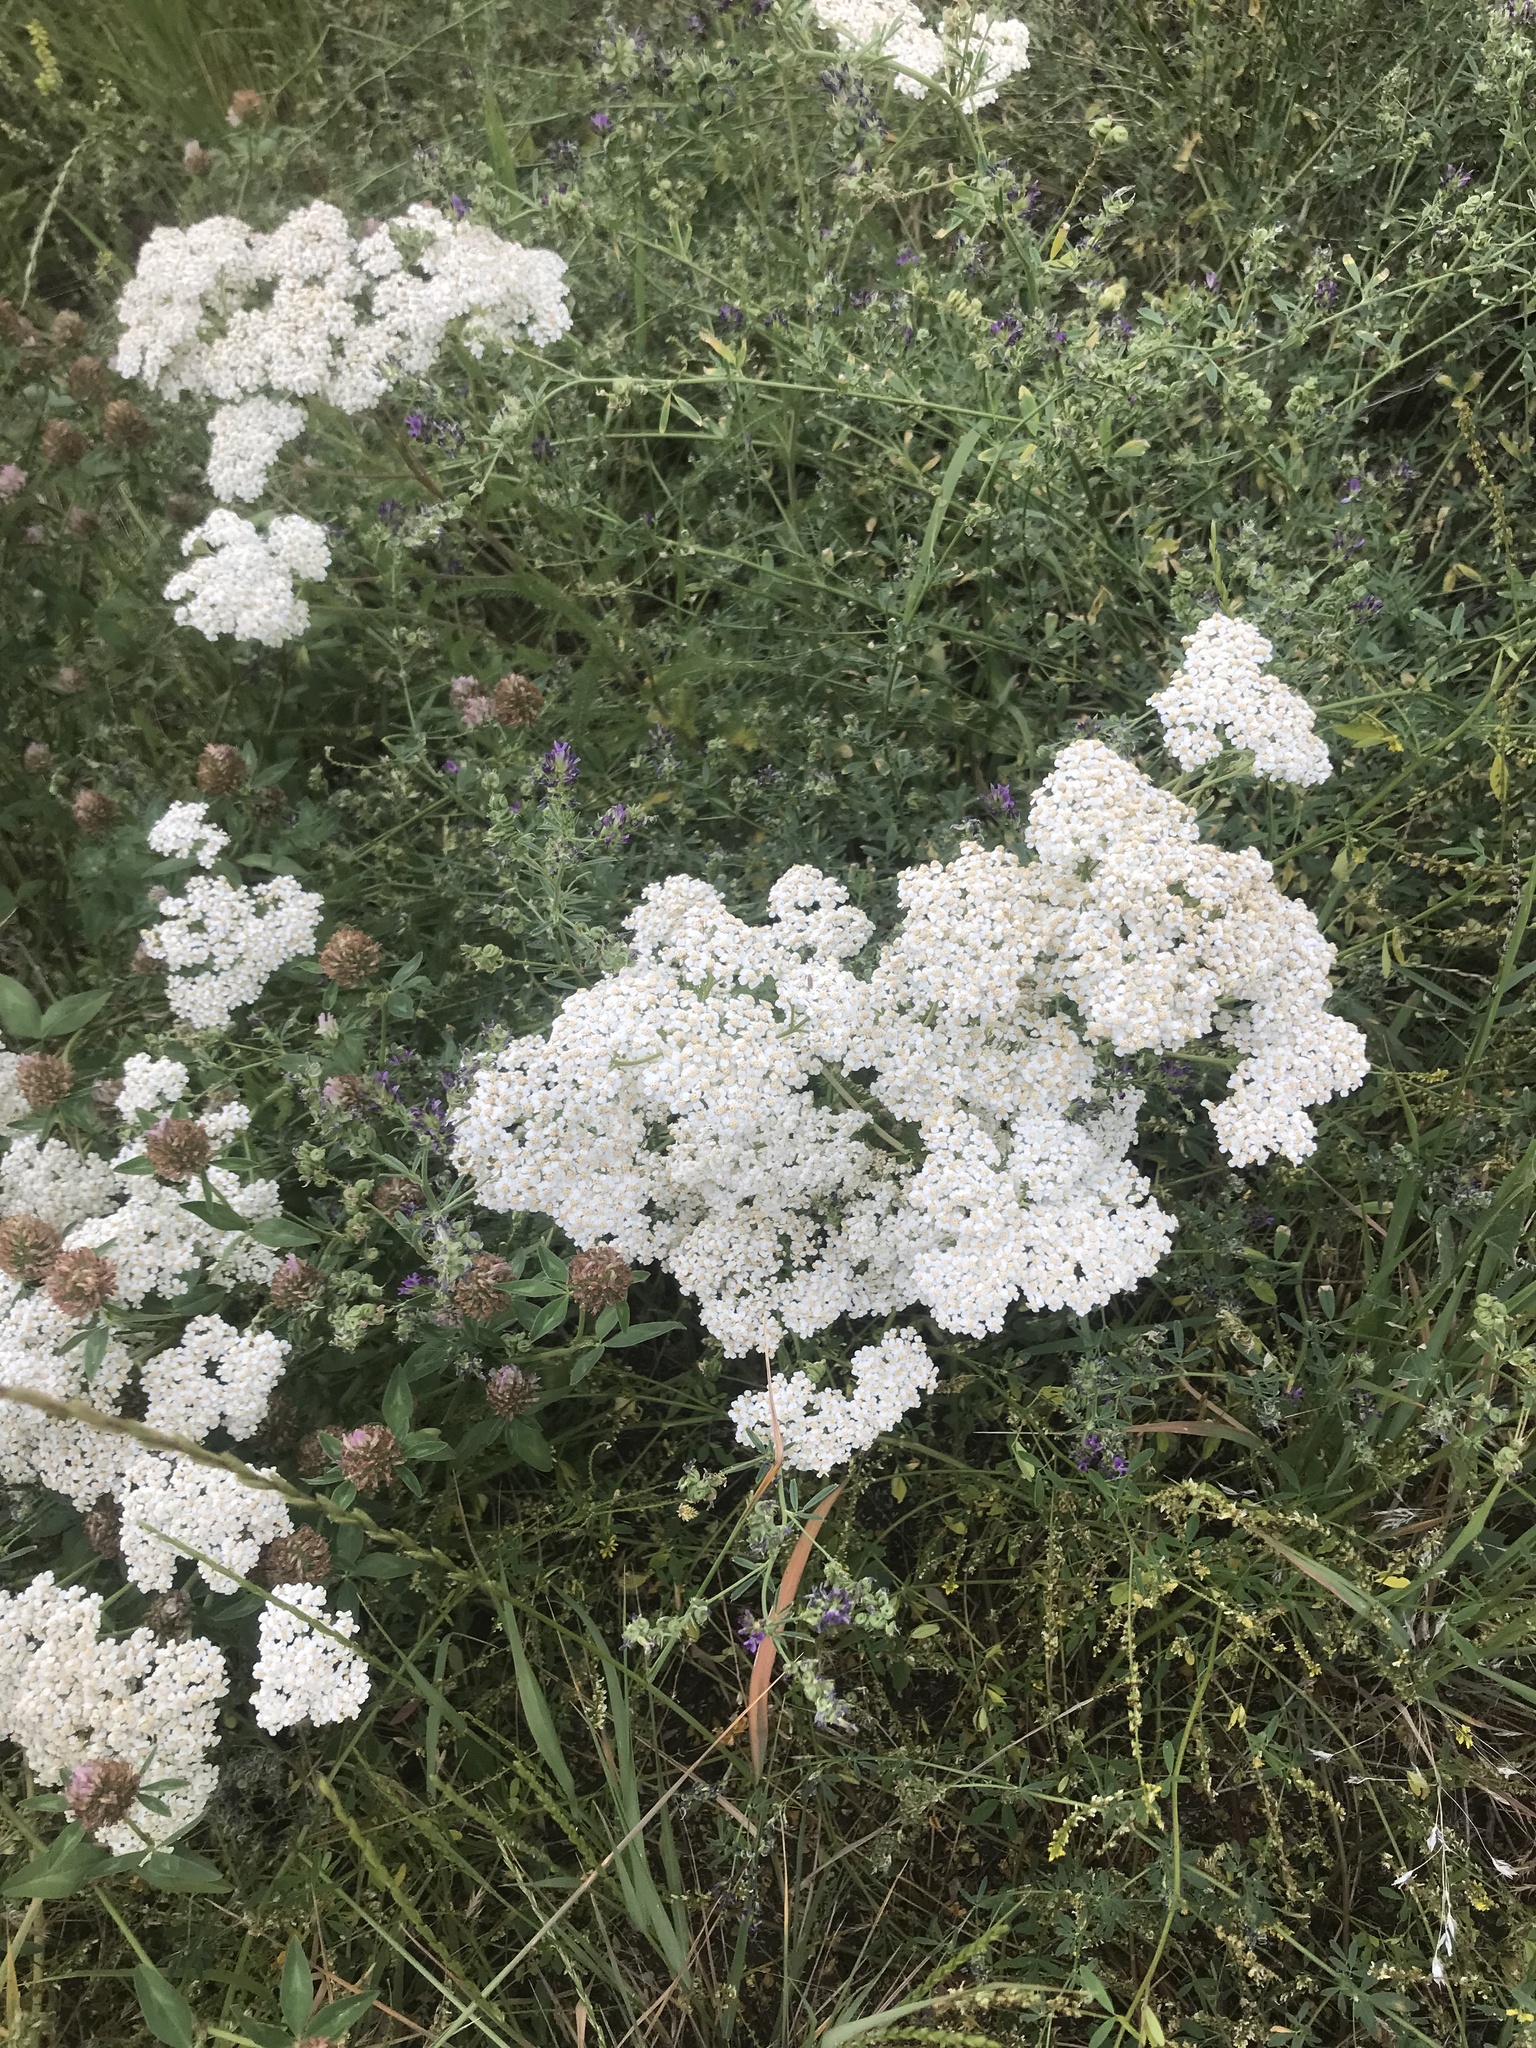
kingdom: Plantae
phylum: Tracheophyta
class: Magnoliopsida
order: Asterales
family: Asteraceae
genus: Achillea
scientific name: Achillea millefolium
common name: Yarrow
